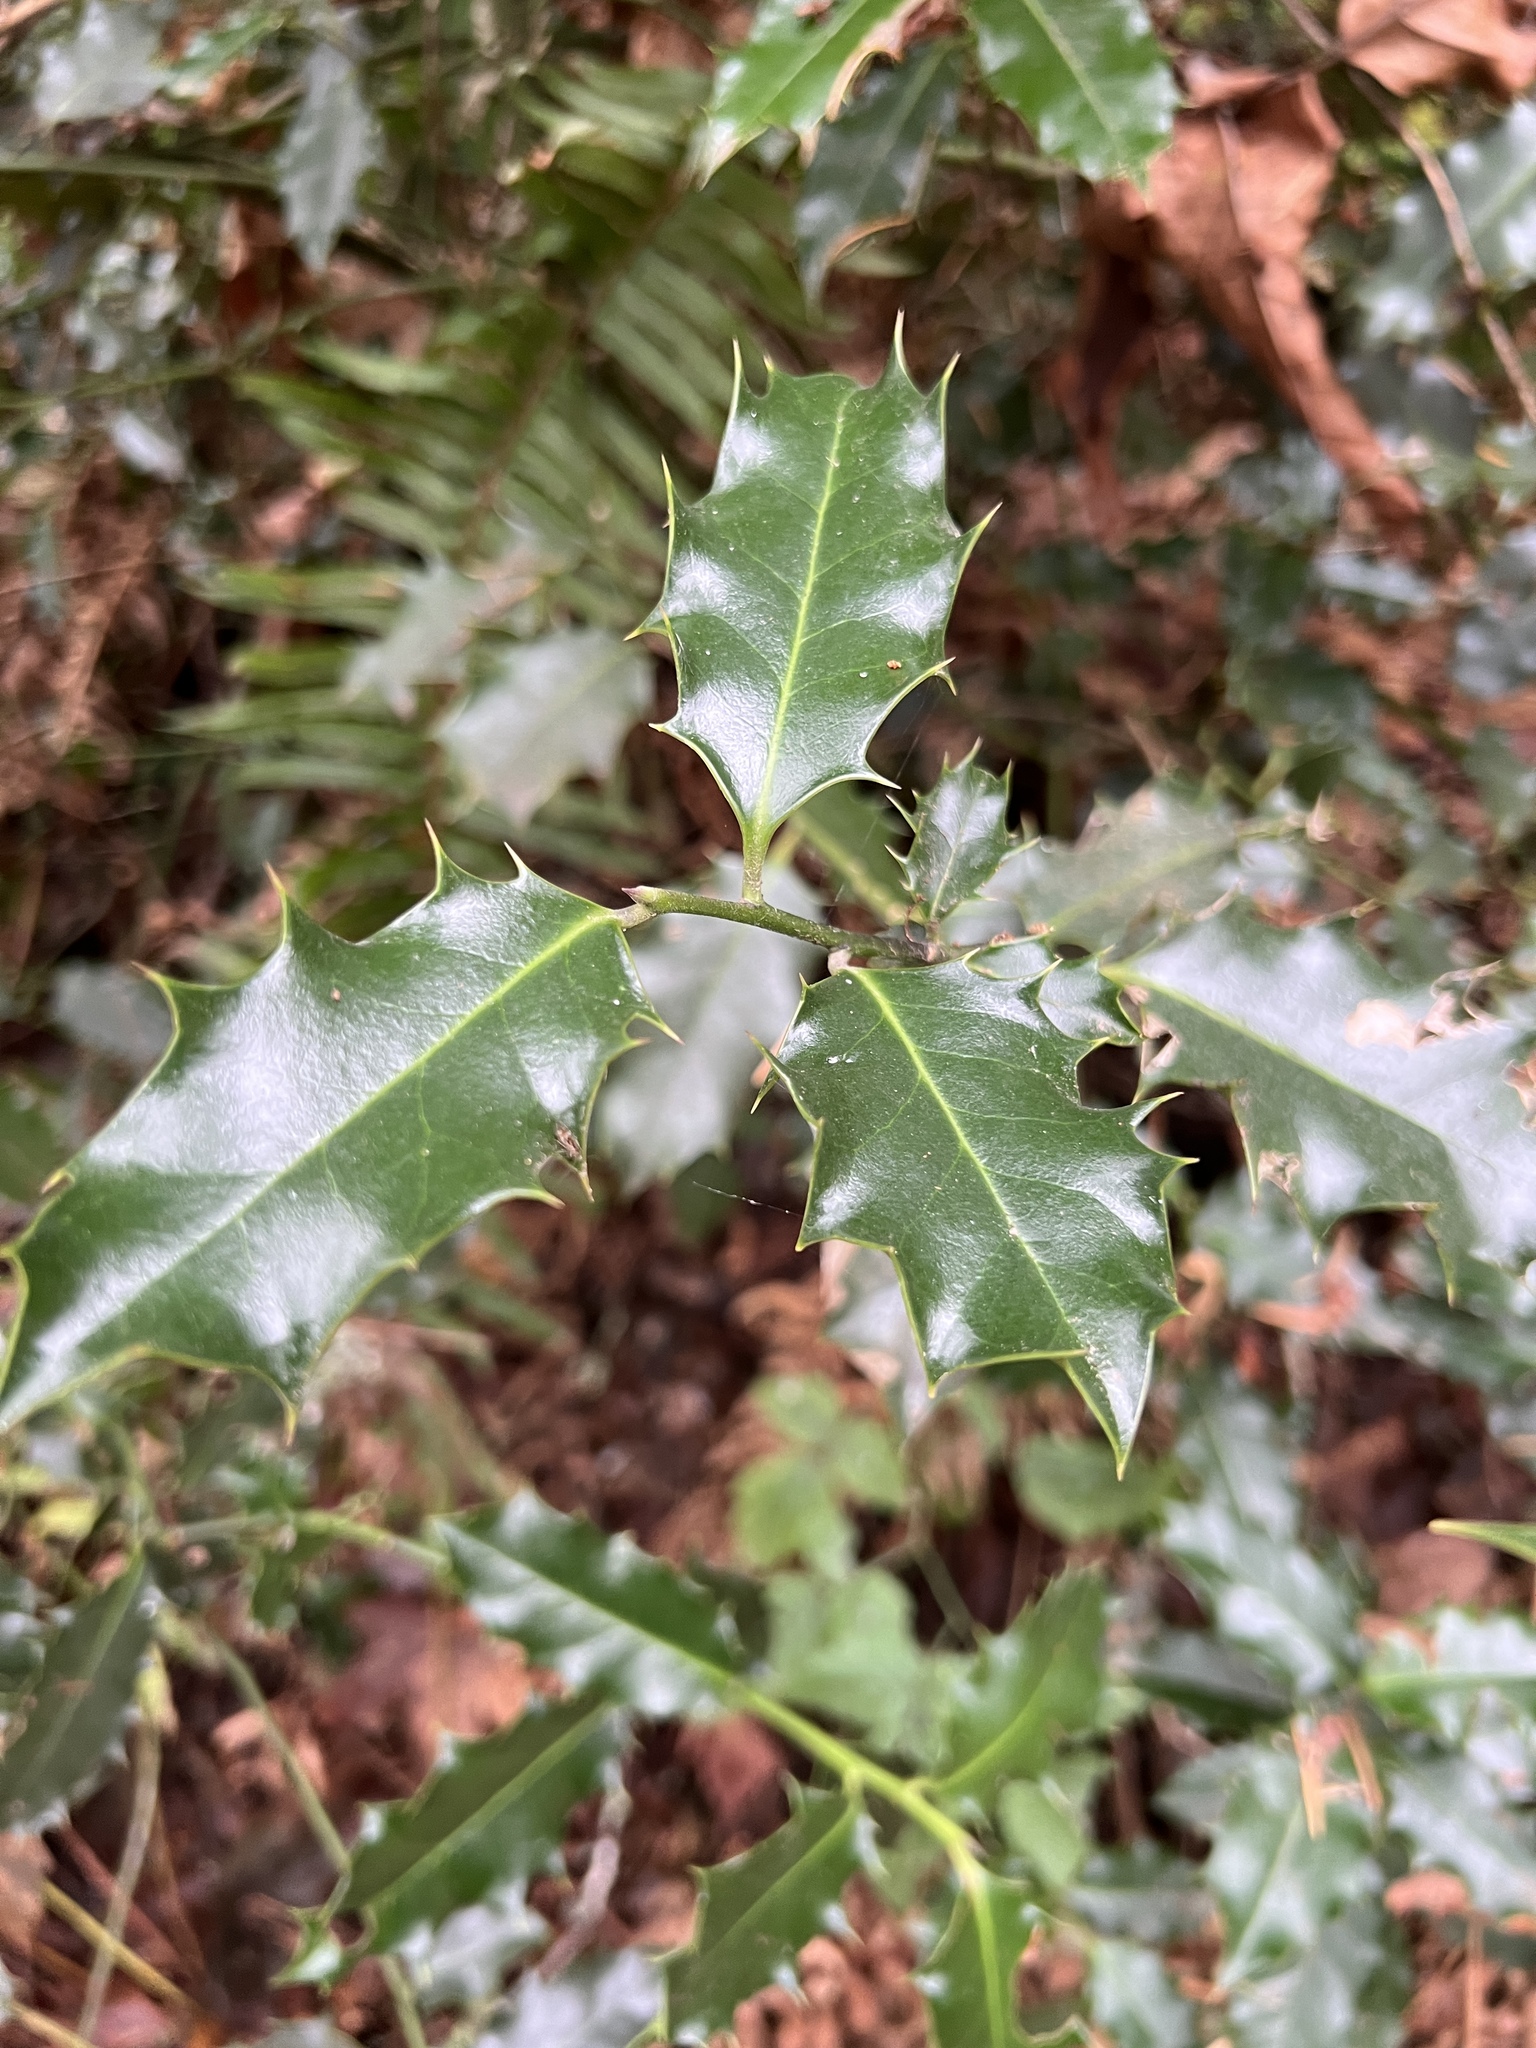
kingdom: Plantae
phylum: Tracheophyta
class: Magnoliopsida
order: Aquifoliales
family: Aquifoliaceae
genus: Ilex
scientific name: Ilex aquifolium
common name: English holly
